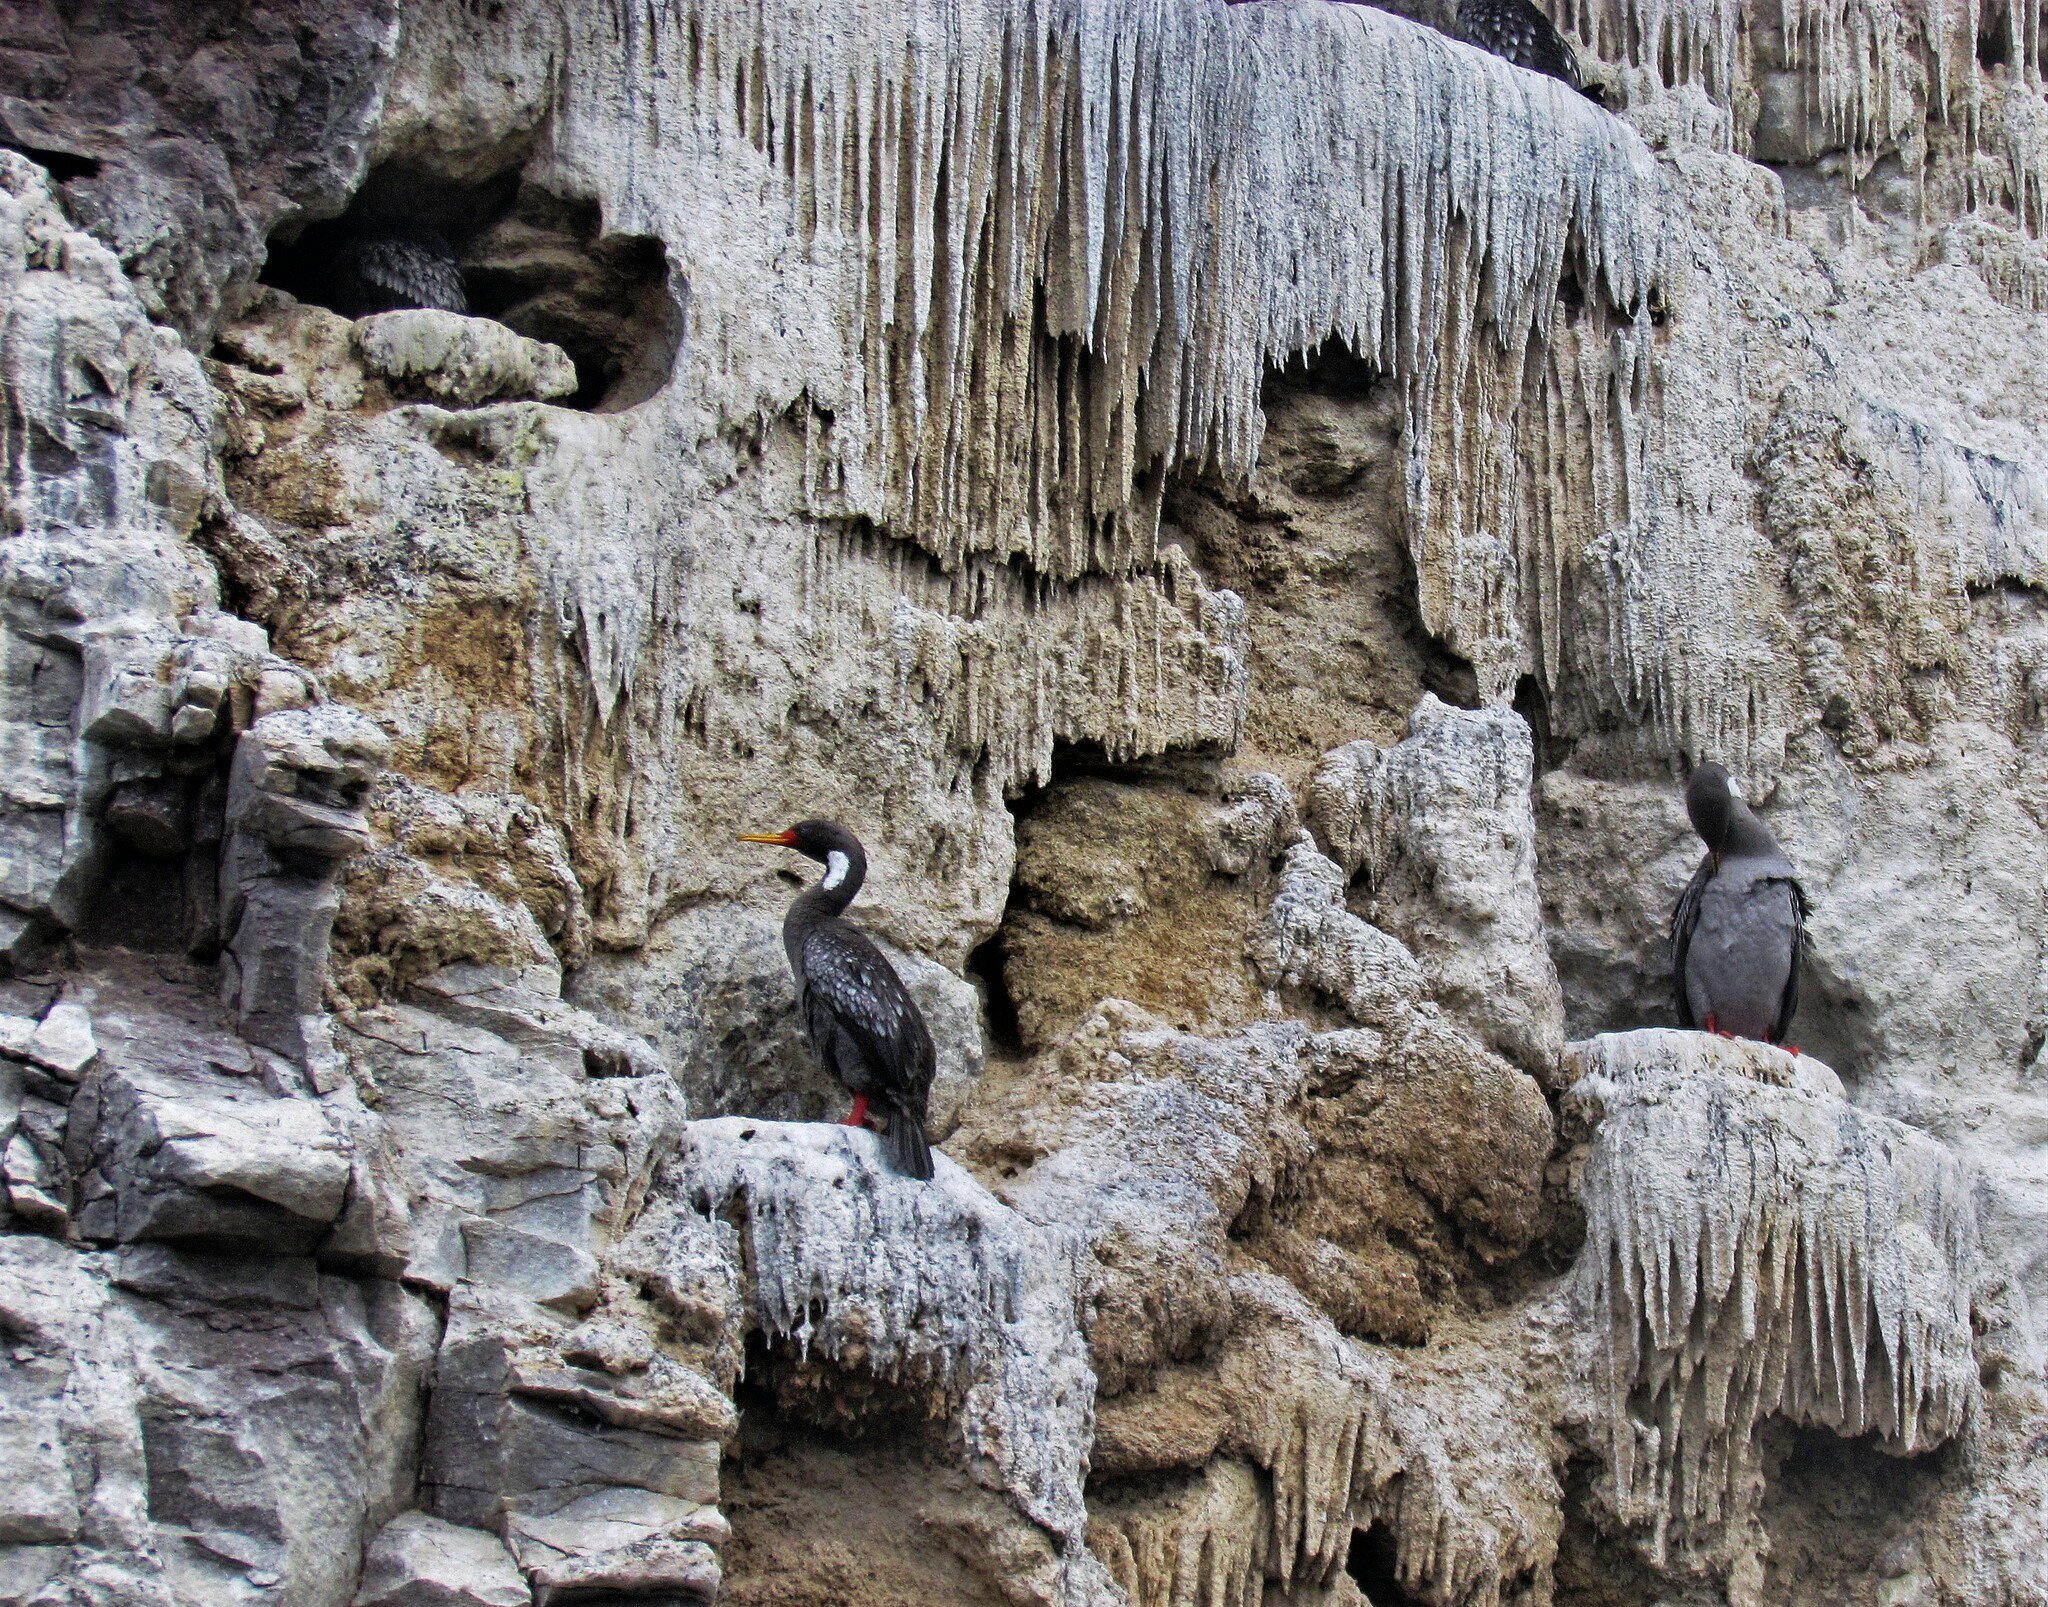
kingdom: Animalia
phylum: Chordata
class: Aves
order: Suliformes
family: Phalacrocoracidae
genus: Phalacrocorax
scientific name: Phalacrocorax gaimardi
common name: Red-legged cormorant
